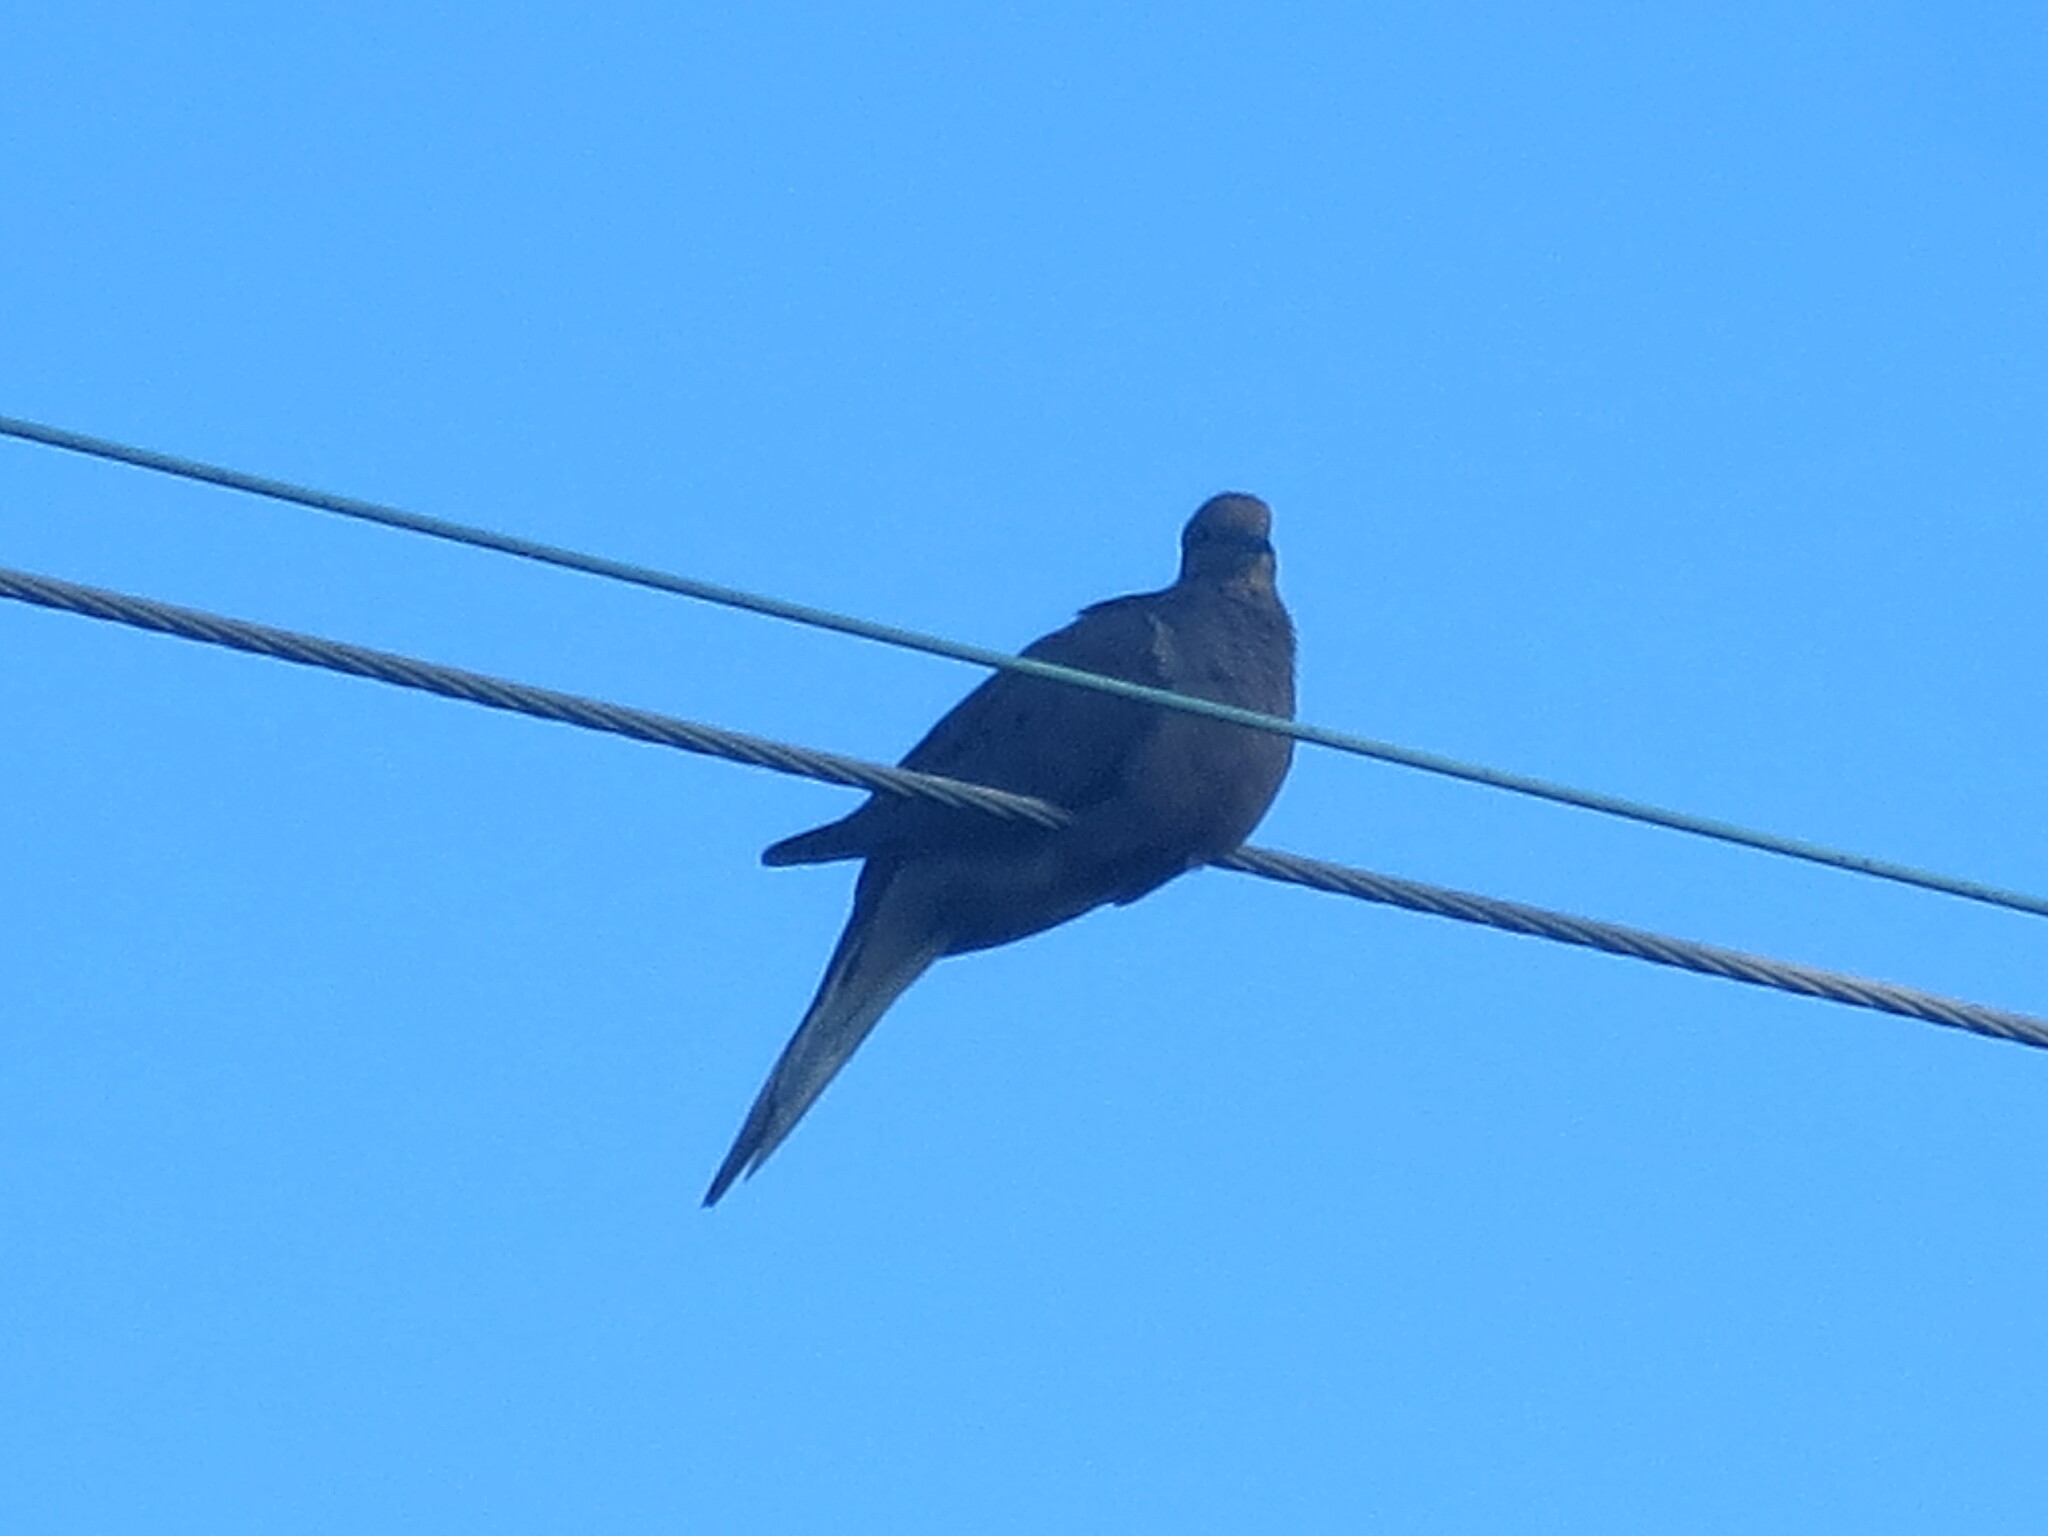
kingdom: Animalia
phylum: Chordata
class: Aves
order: Columbiformes
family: Columbidae
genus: Zenaida
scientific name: Zenaida macroura
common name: Mourning dove
